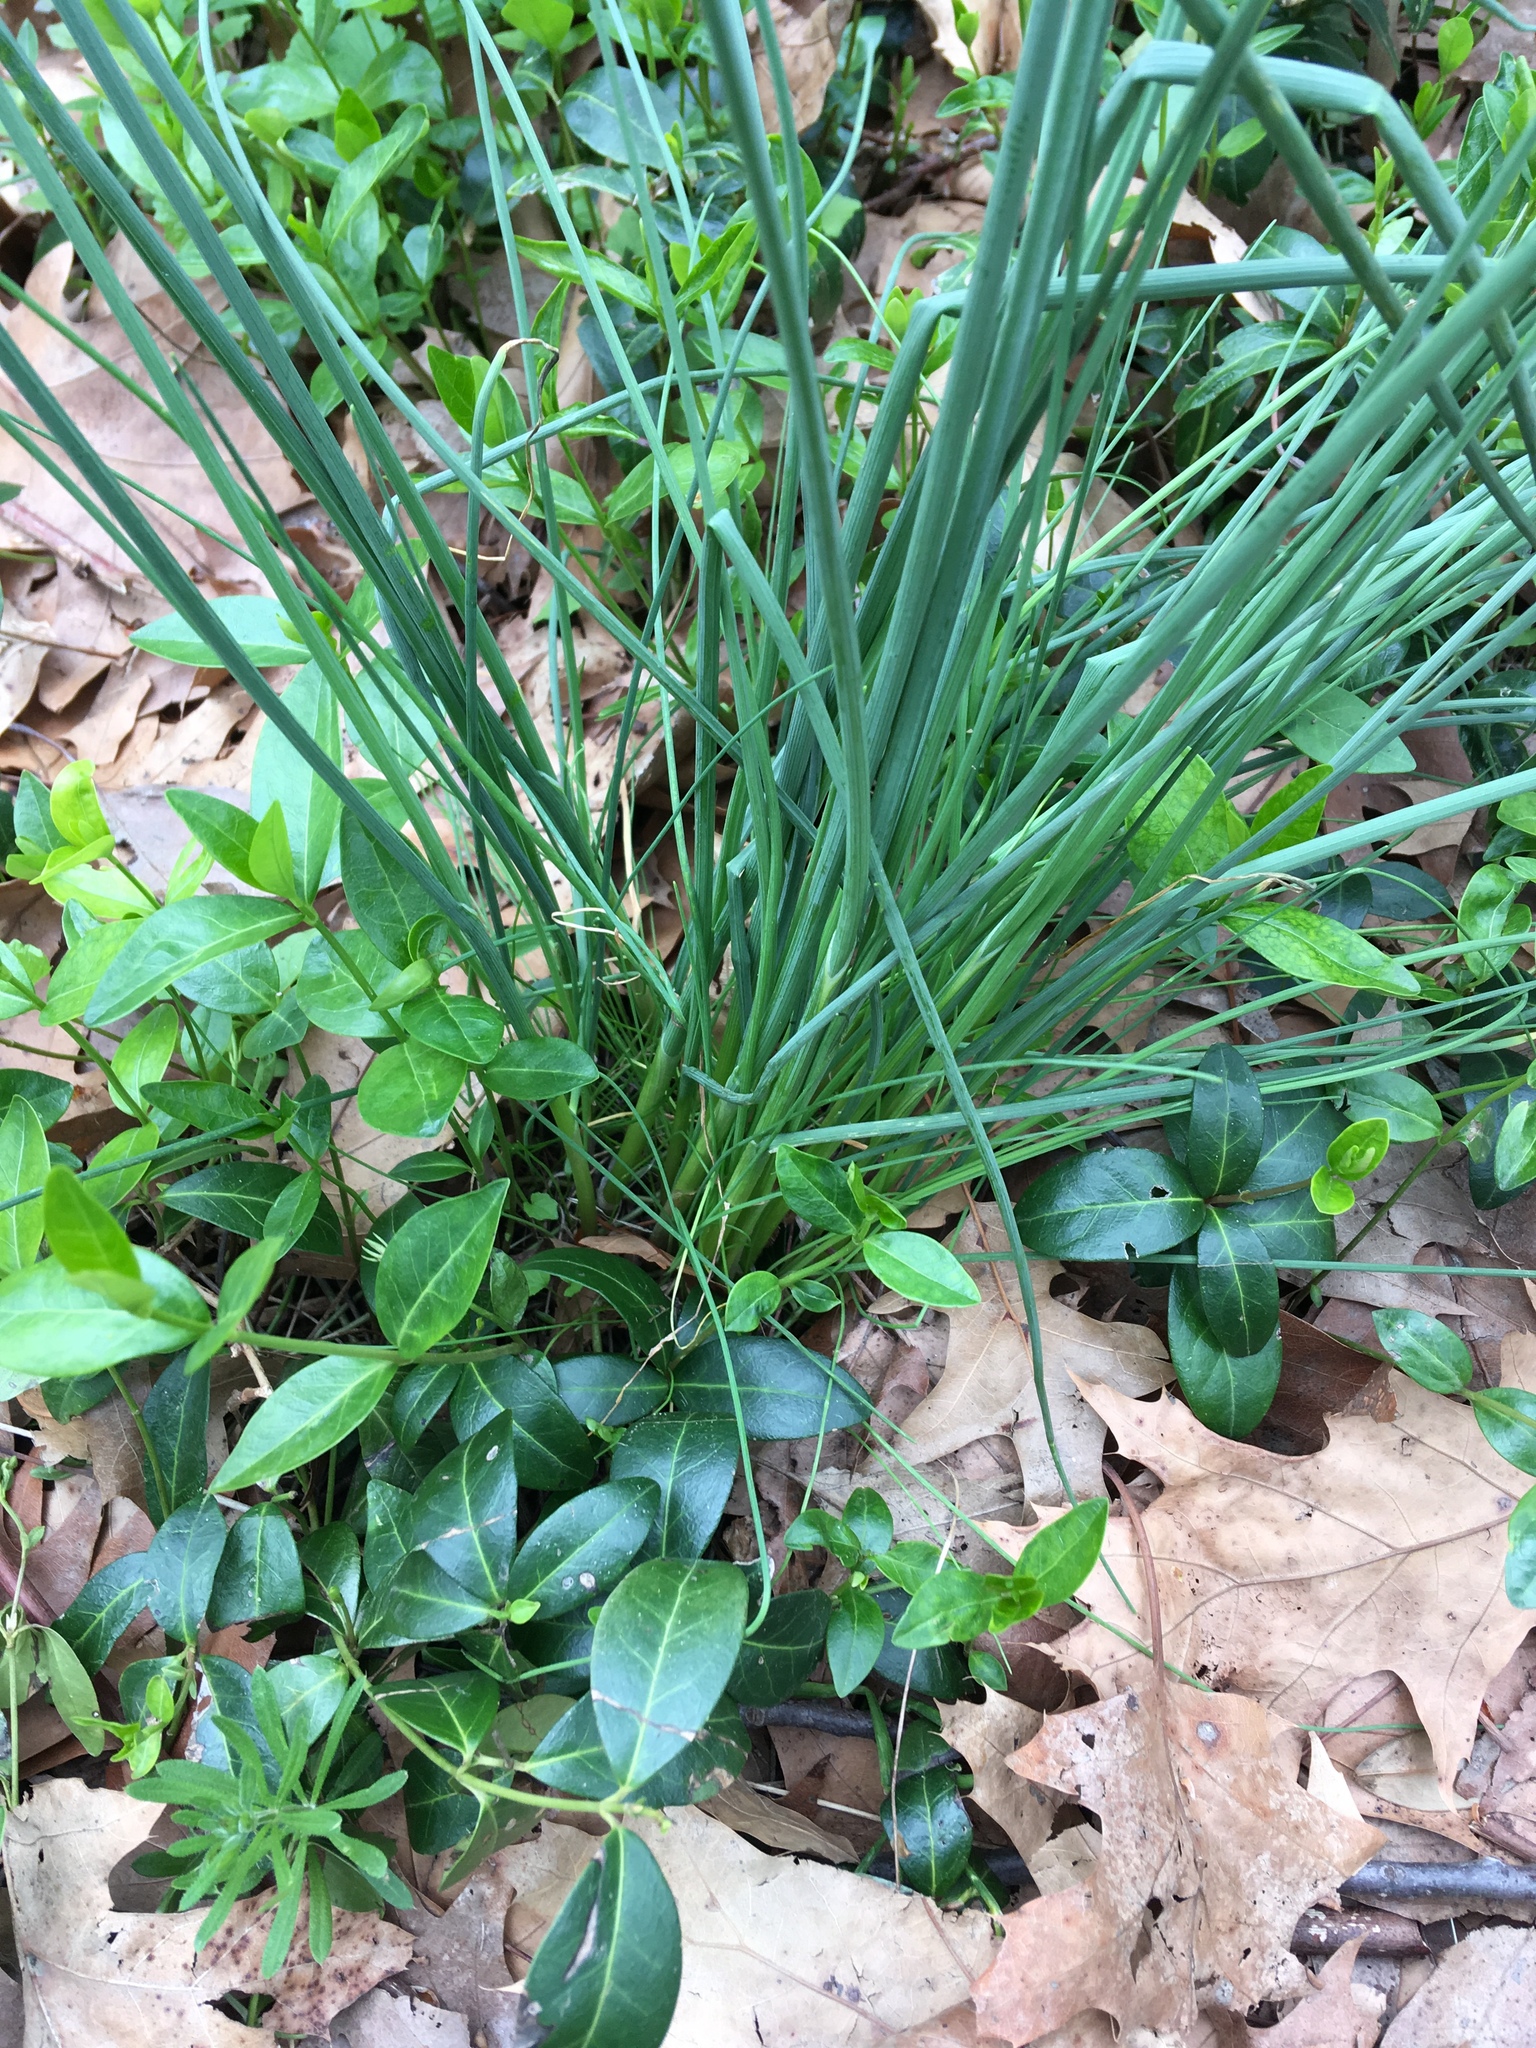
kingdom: Plantae
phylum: Tracheophyta
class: Liliopsida
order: Asparagales
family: Amaryllidaceae
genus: Allium
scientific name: Allium vineale
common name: Crow garlic
